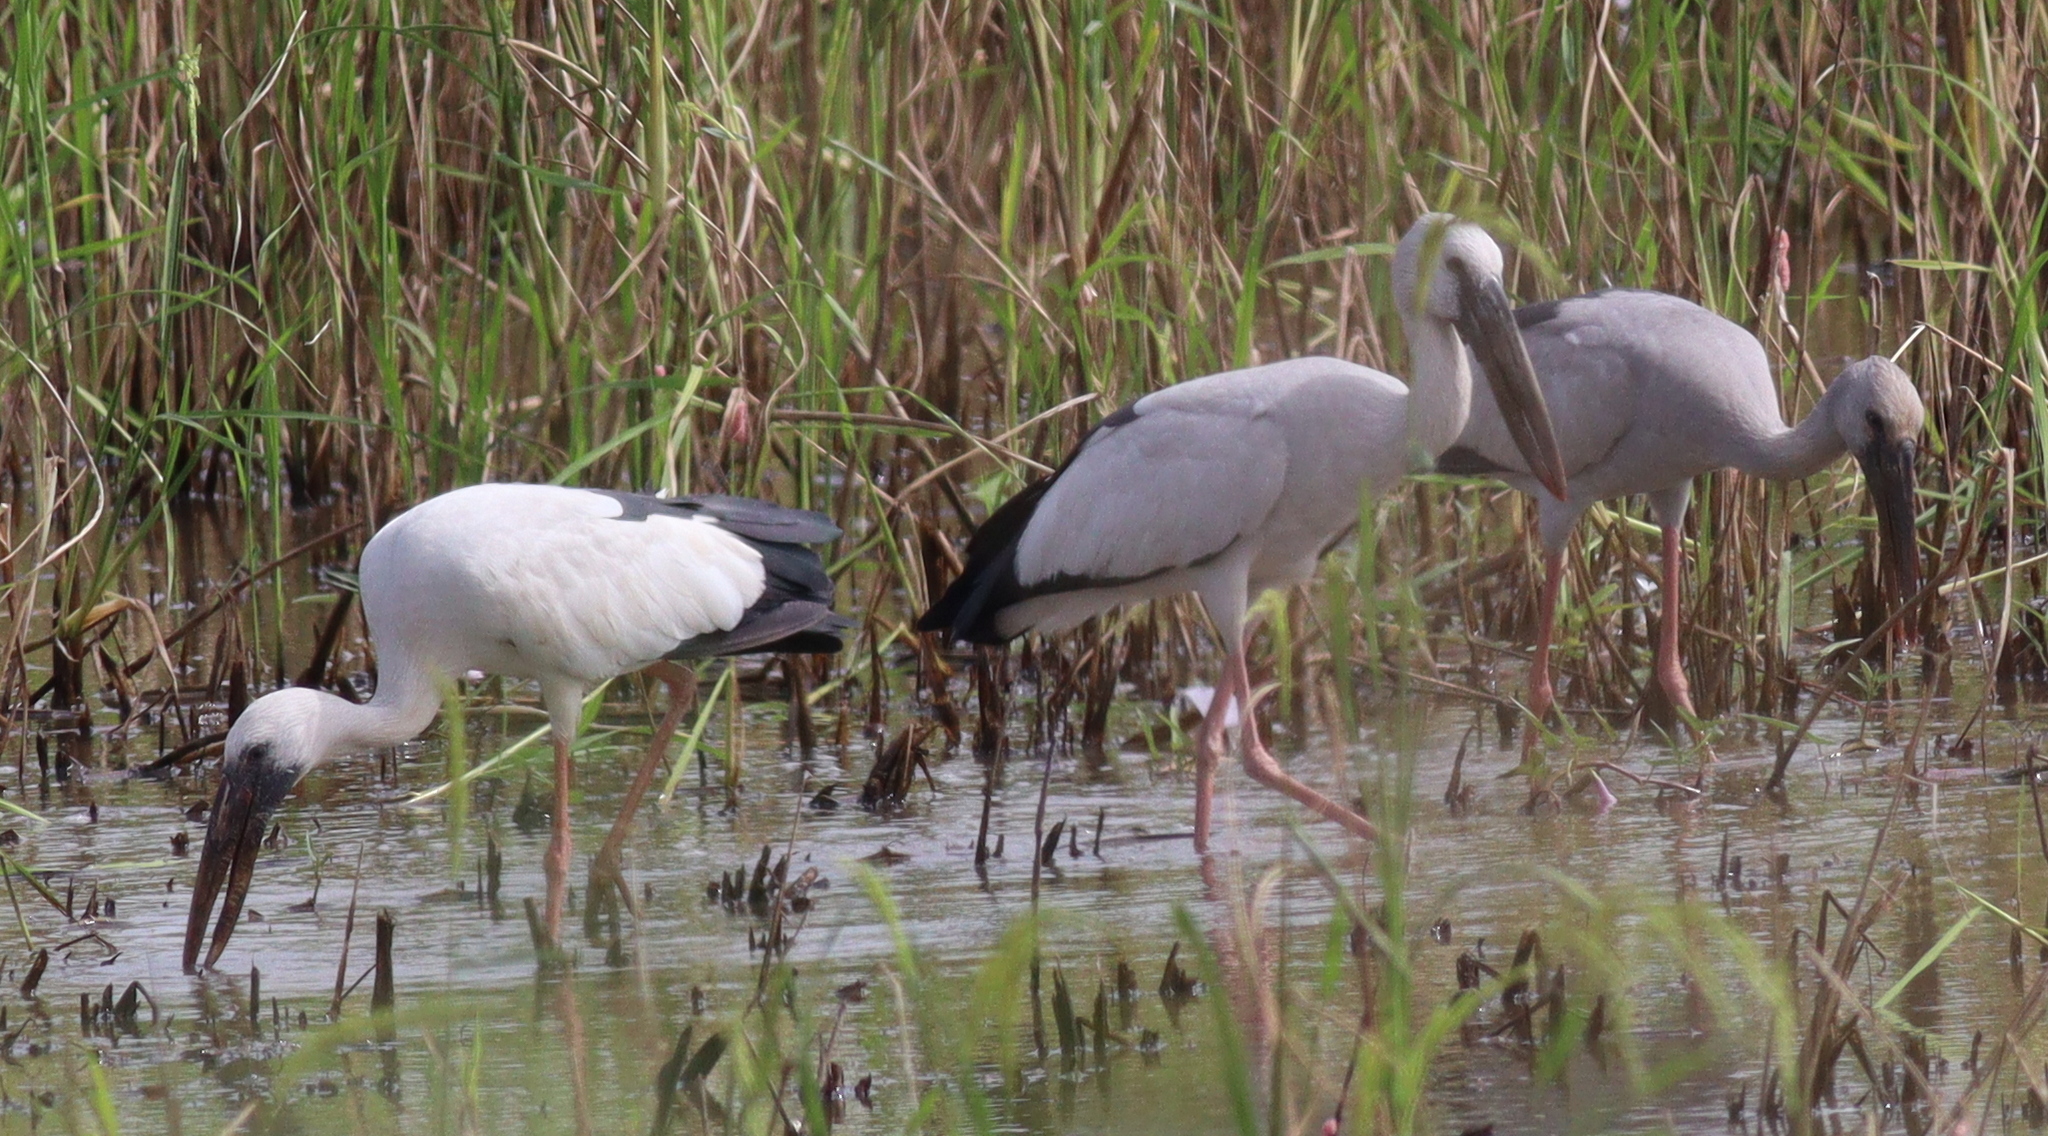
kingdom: Animalia
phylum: Chordata
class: Aves
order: Ciconiiformes
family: Ciconiidae
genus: Anastomus
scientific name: Anastomus oscitans
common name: Asian openbill
